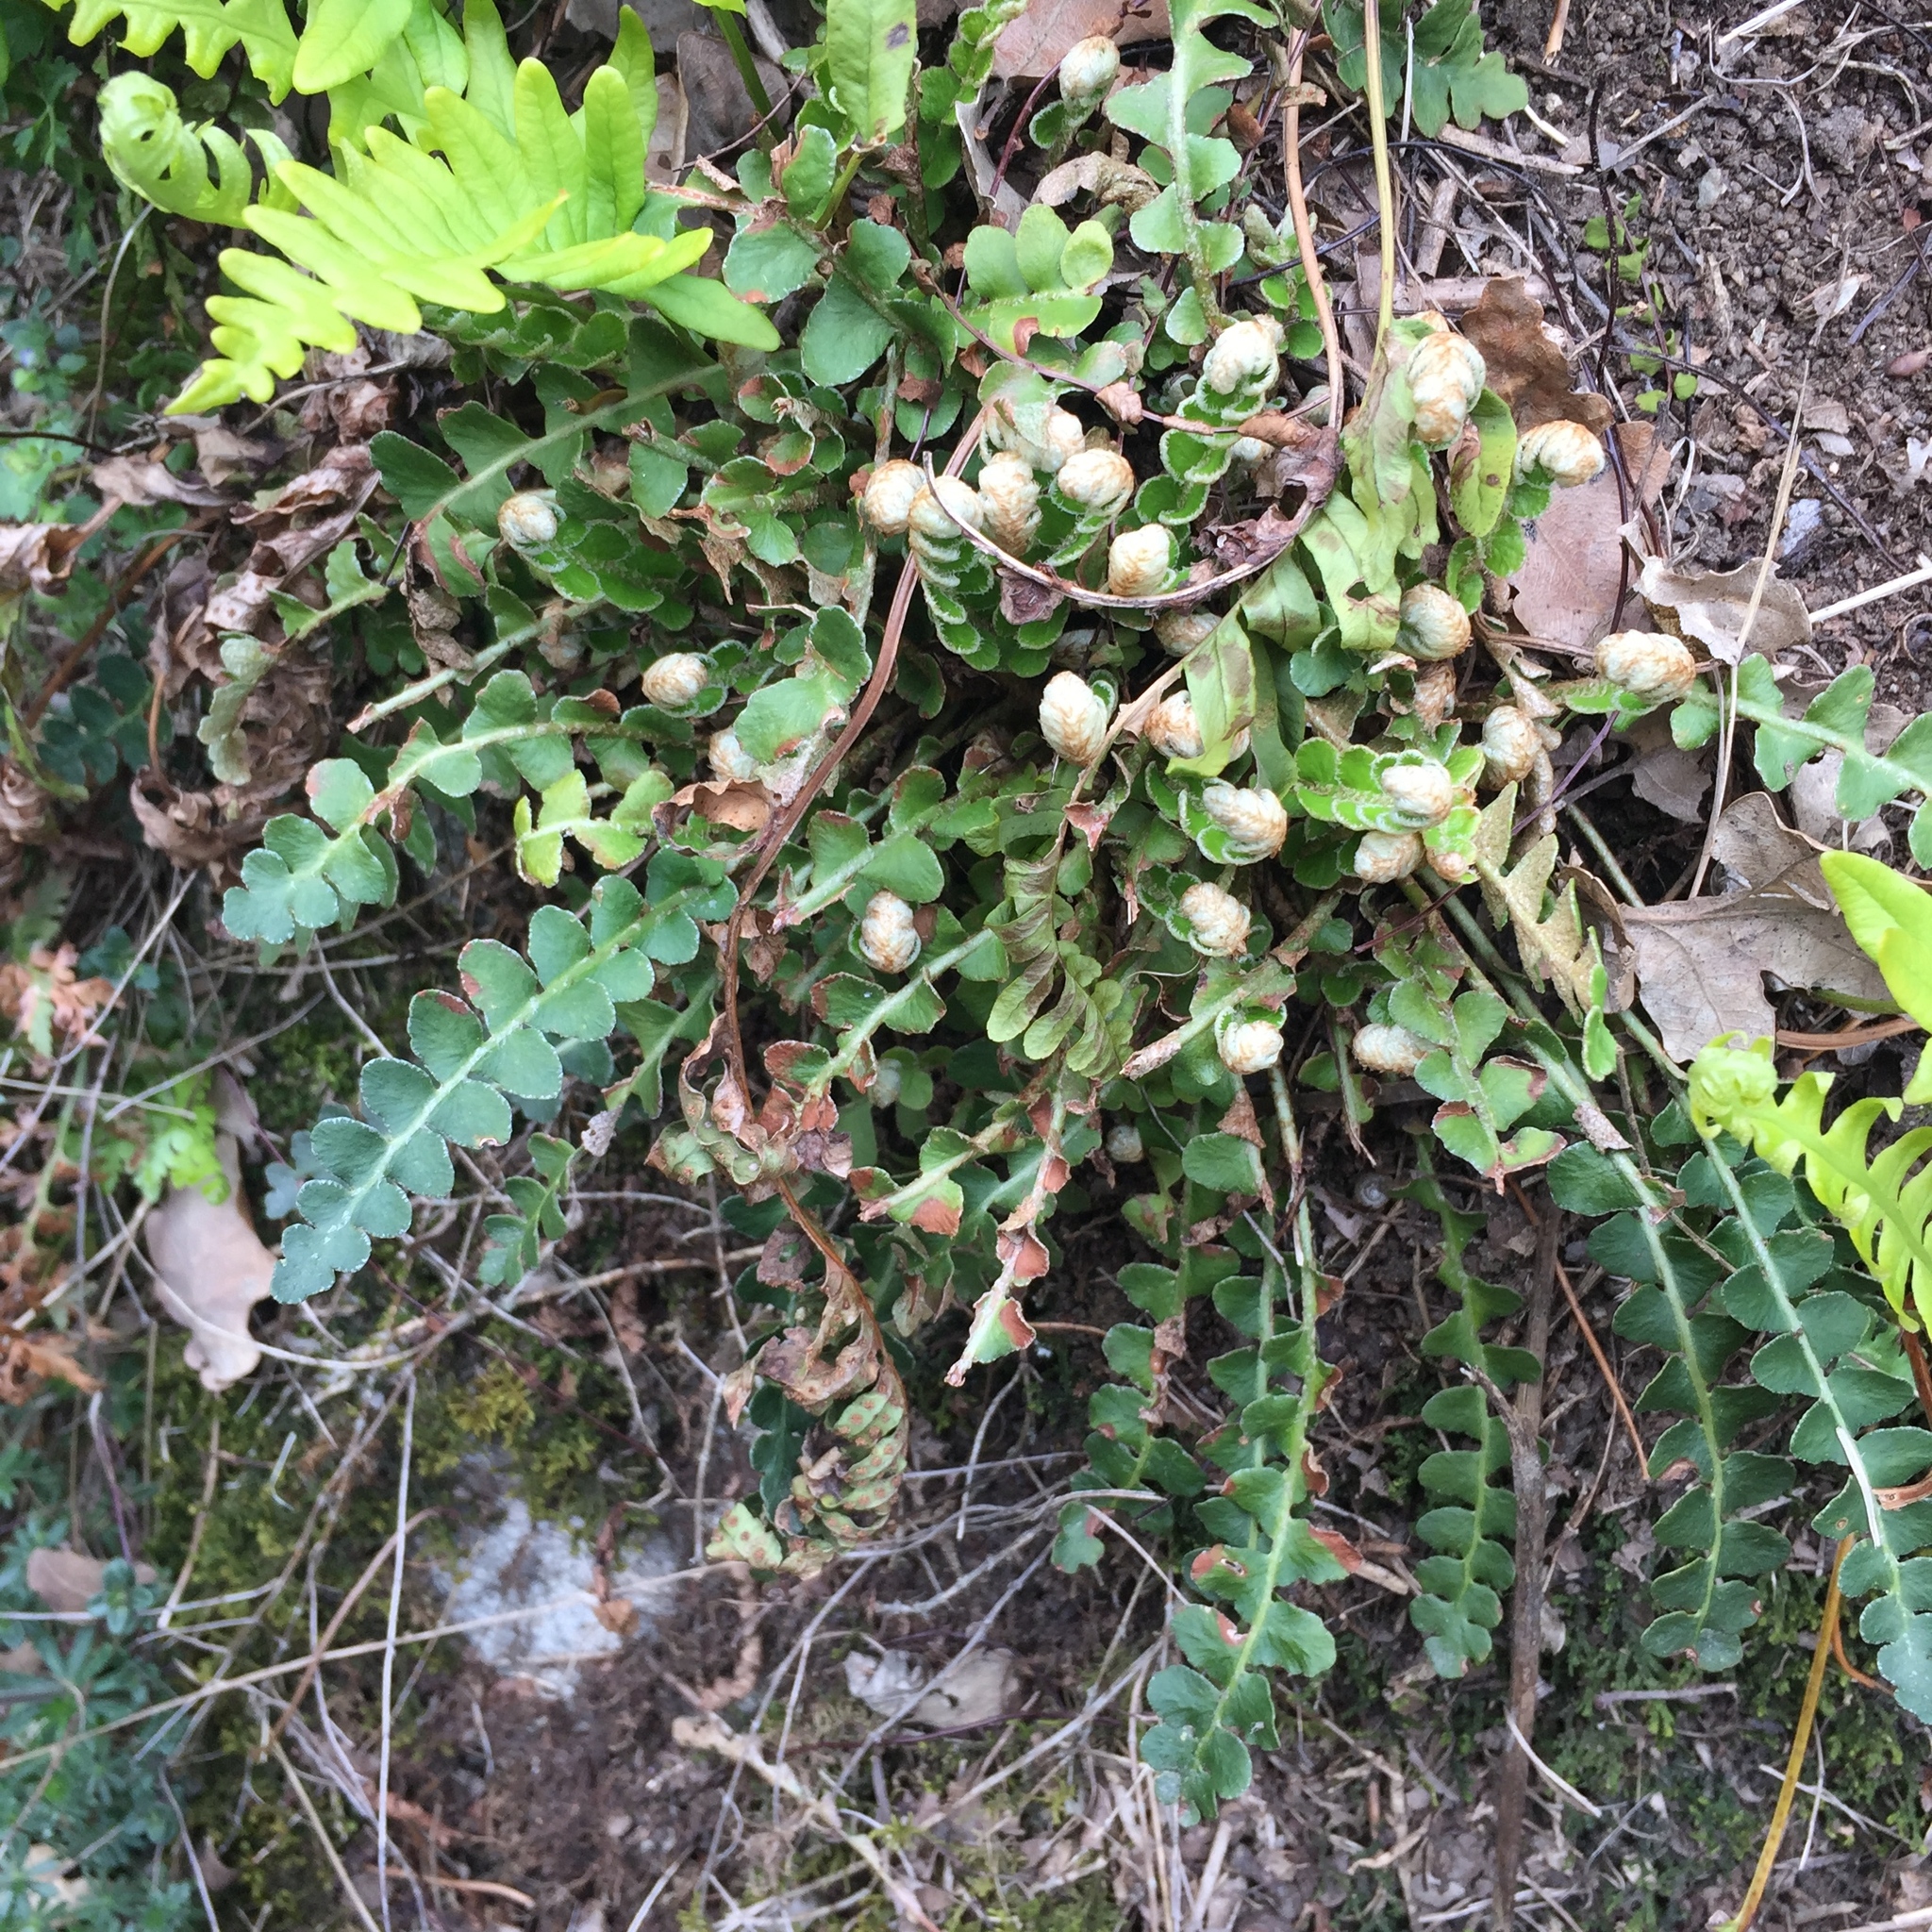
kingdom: Plantae
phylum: Tracheophyta
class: Polypodiopsida
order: Polypodiales
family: Aspleniaceae
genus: Asplenium
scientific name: Asplenium ceterach
